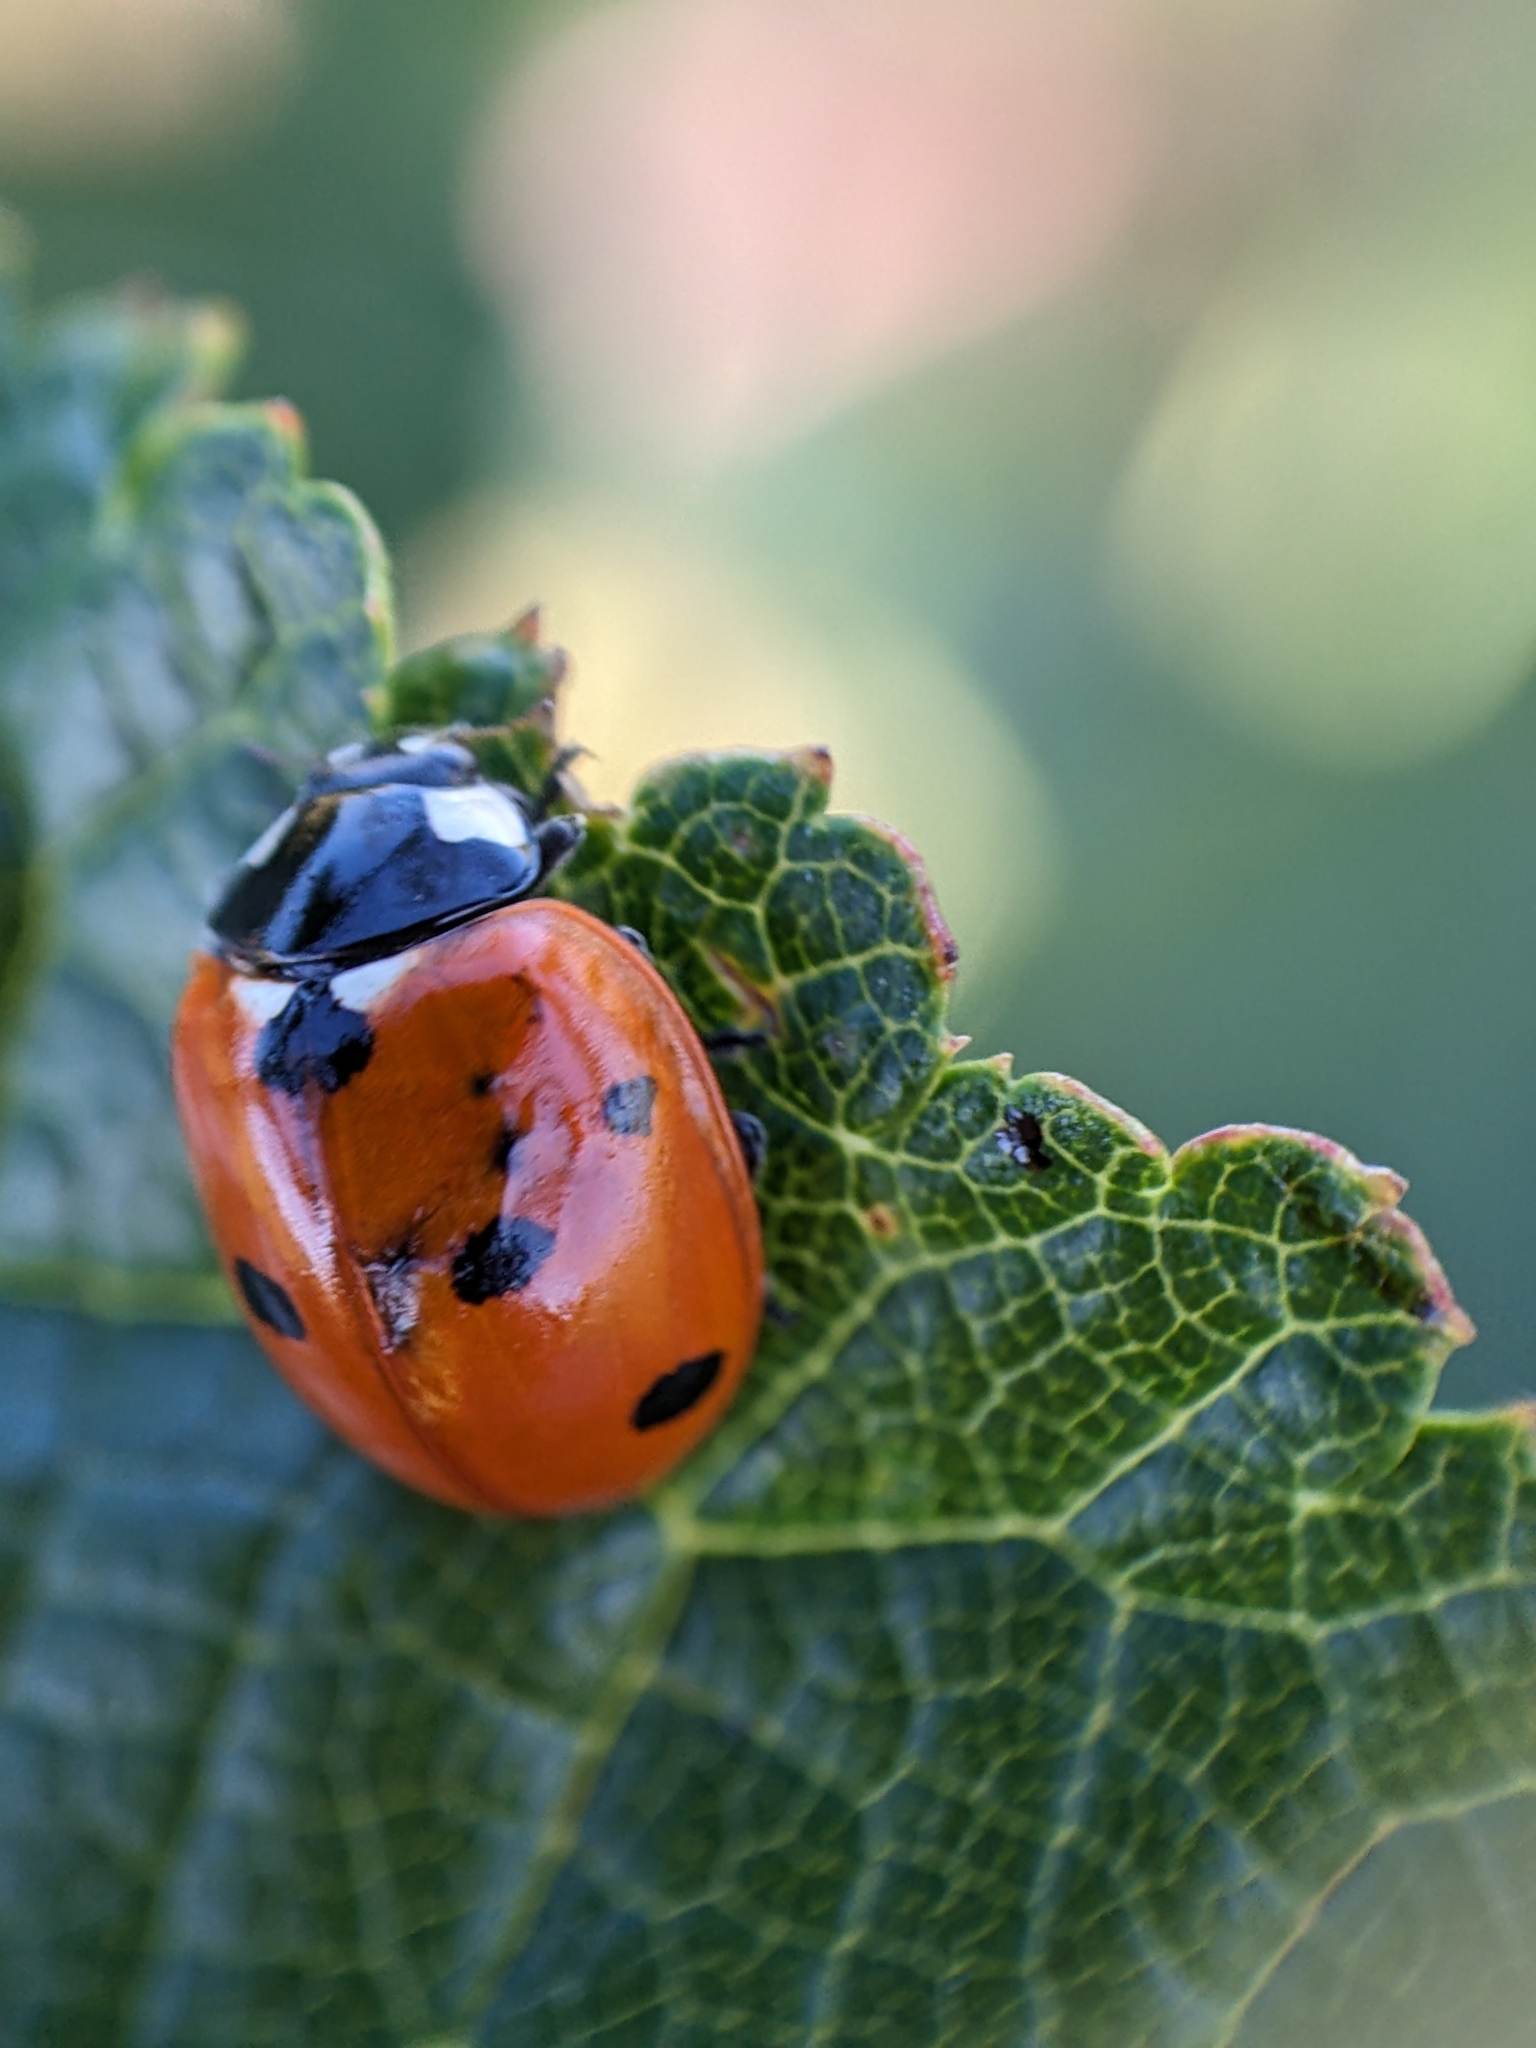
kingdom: Animalia
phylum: Arthropoda
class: Insecta
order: Coleoptera
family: Coccinellidae
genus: Coccinella
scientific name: Coccinella septempunctata
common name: Sevenspotted lady beetle
